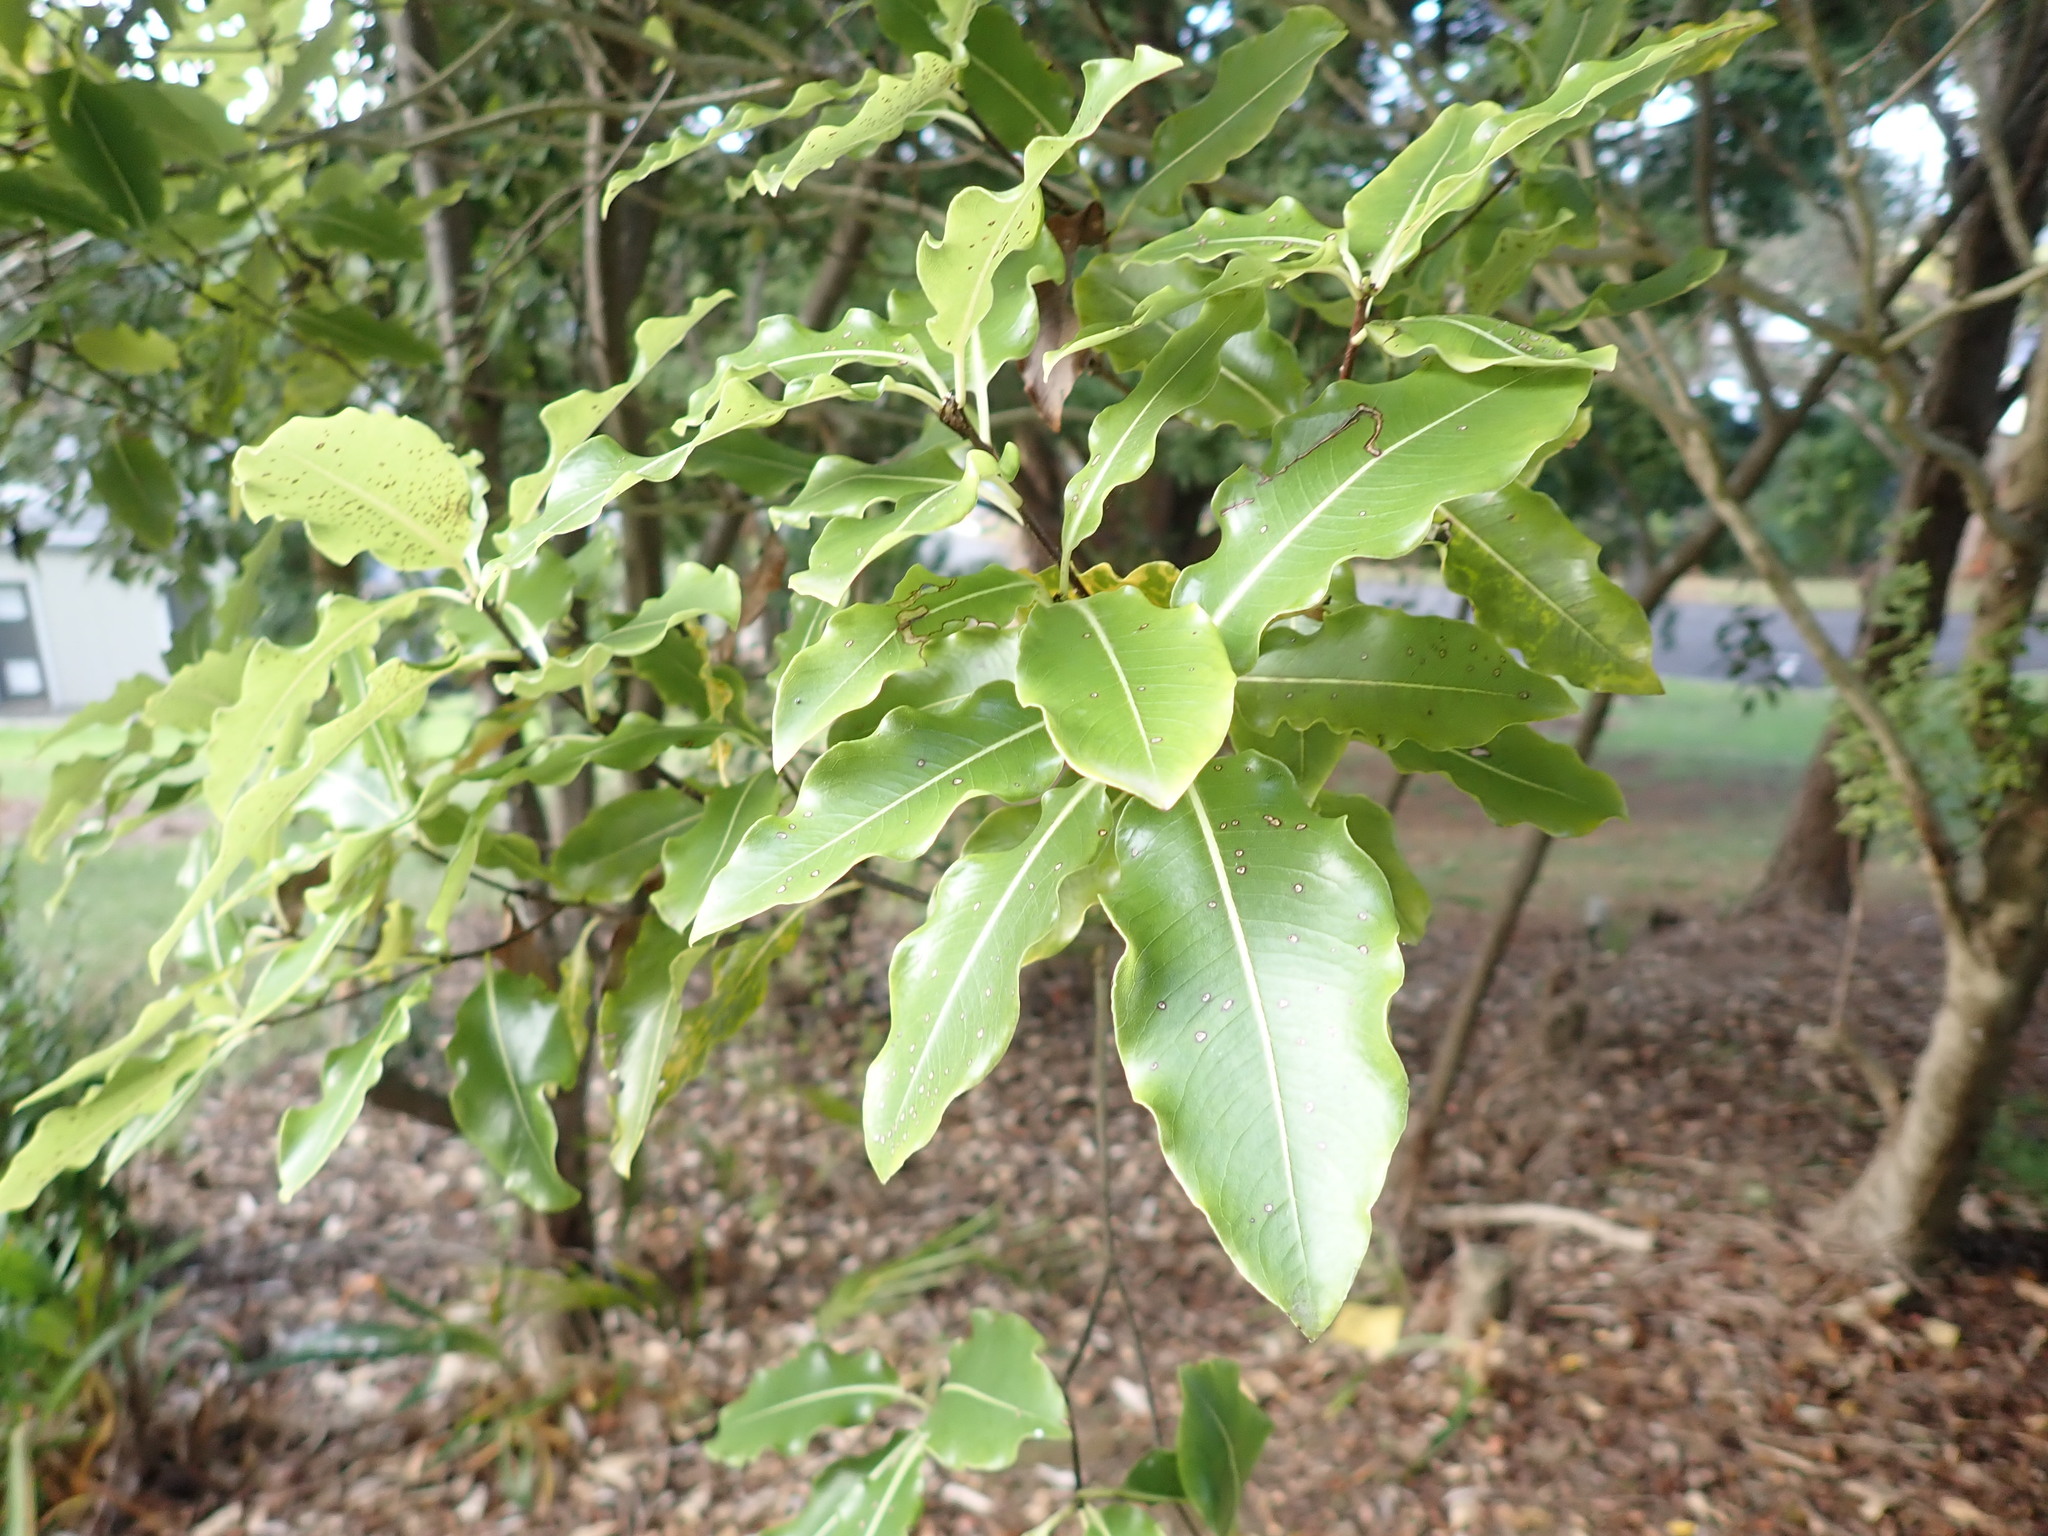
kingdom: Plantae
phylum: Tracheophyta
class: Magnoliopsida
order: Apiales
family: Pittosporaceae
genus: Pittosporum
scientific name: Pittosporum eugenioides
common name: Lemonwood
